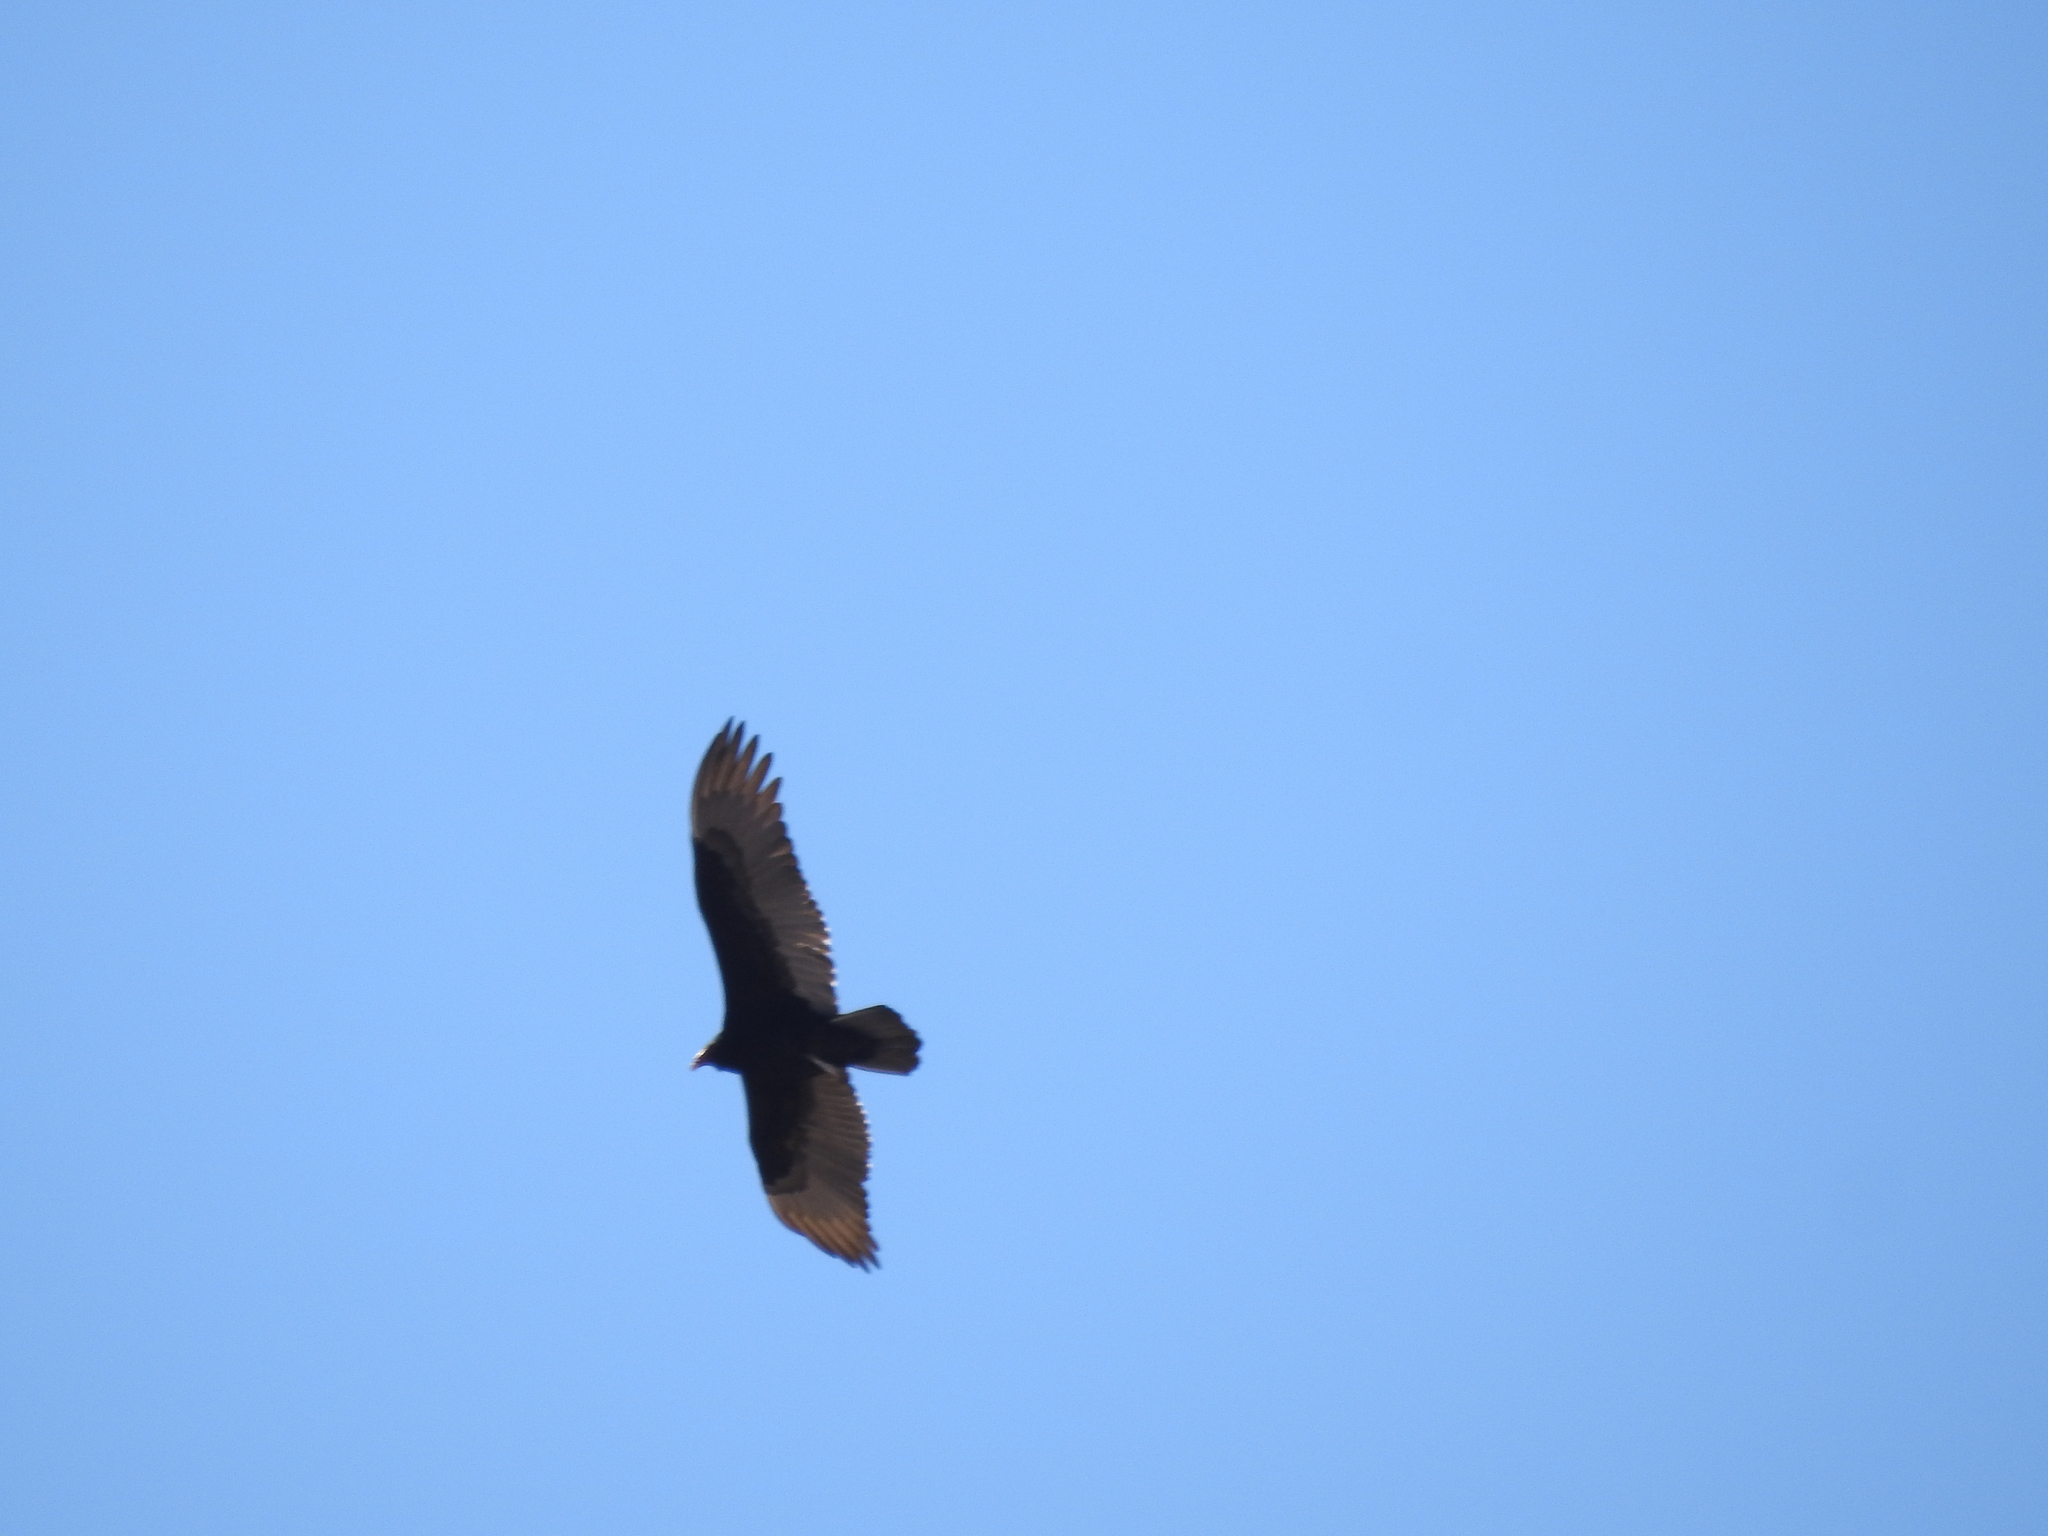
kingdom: Animalia
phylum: Chordata
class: Aves
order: Accipitriformes
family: Cathartidae
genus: Cathartes
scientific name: Cathartes aura
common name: Turkey vulture
